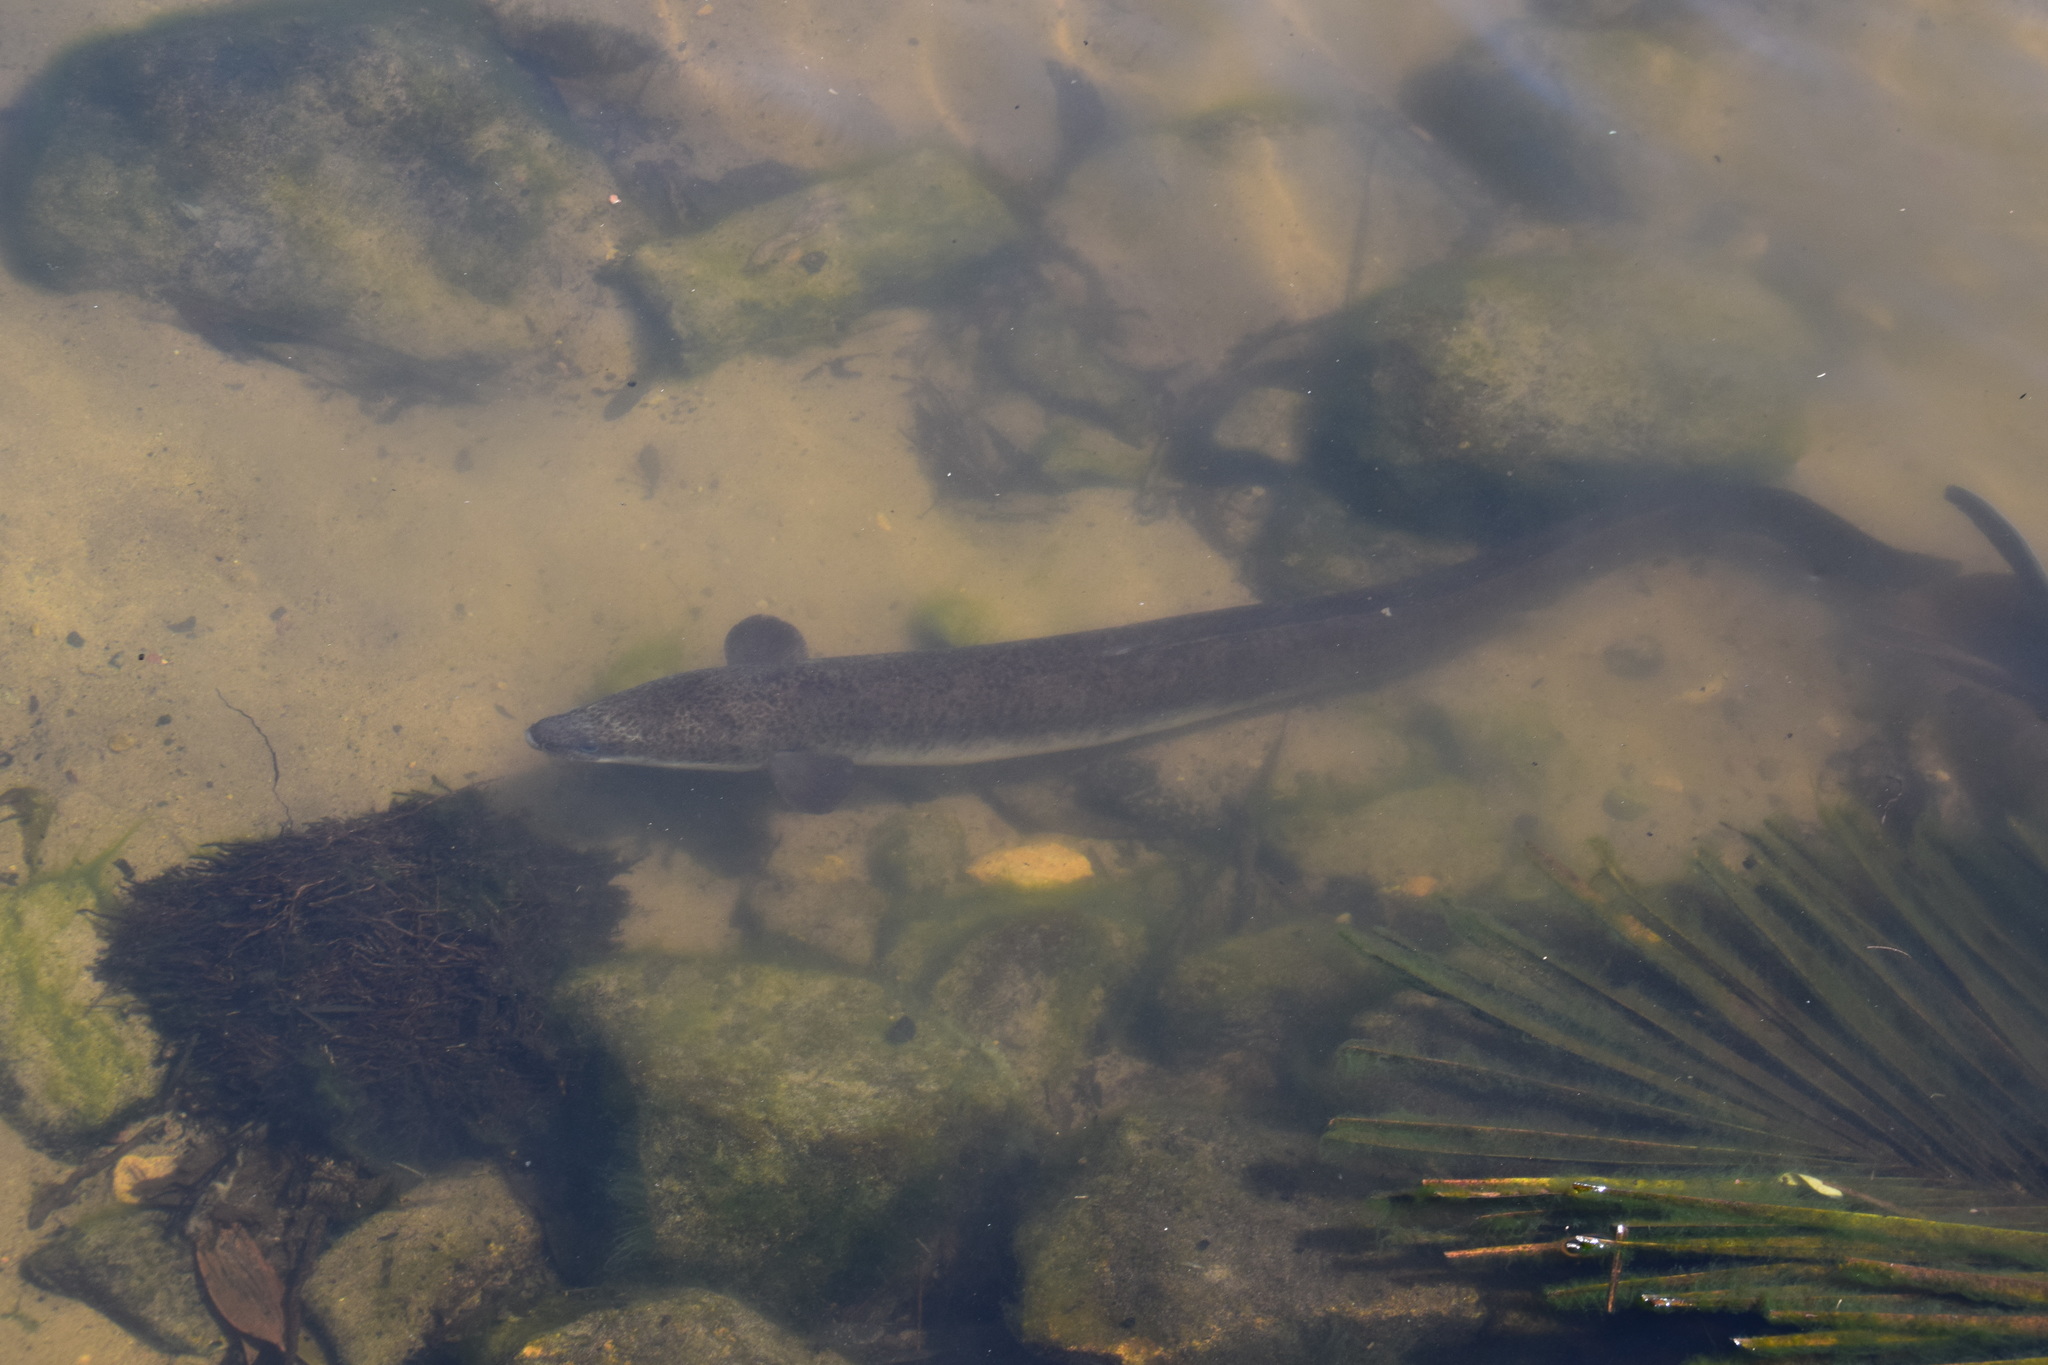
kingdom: Animalia
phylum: Chordata
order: Anguilliformes
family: Anguillidae
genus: Anguilla
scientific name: Anguilla reinhardtii
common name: Longfin eel
